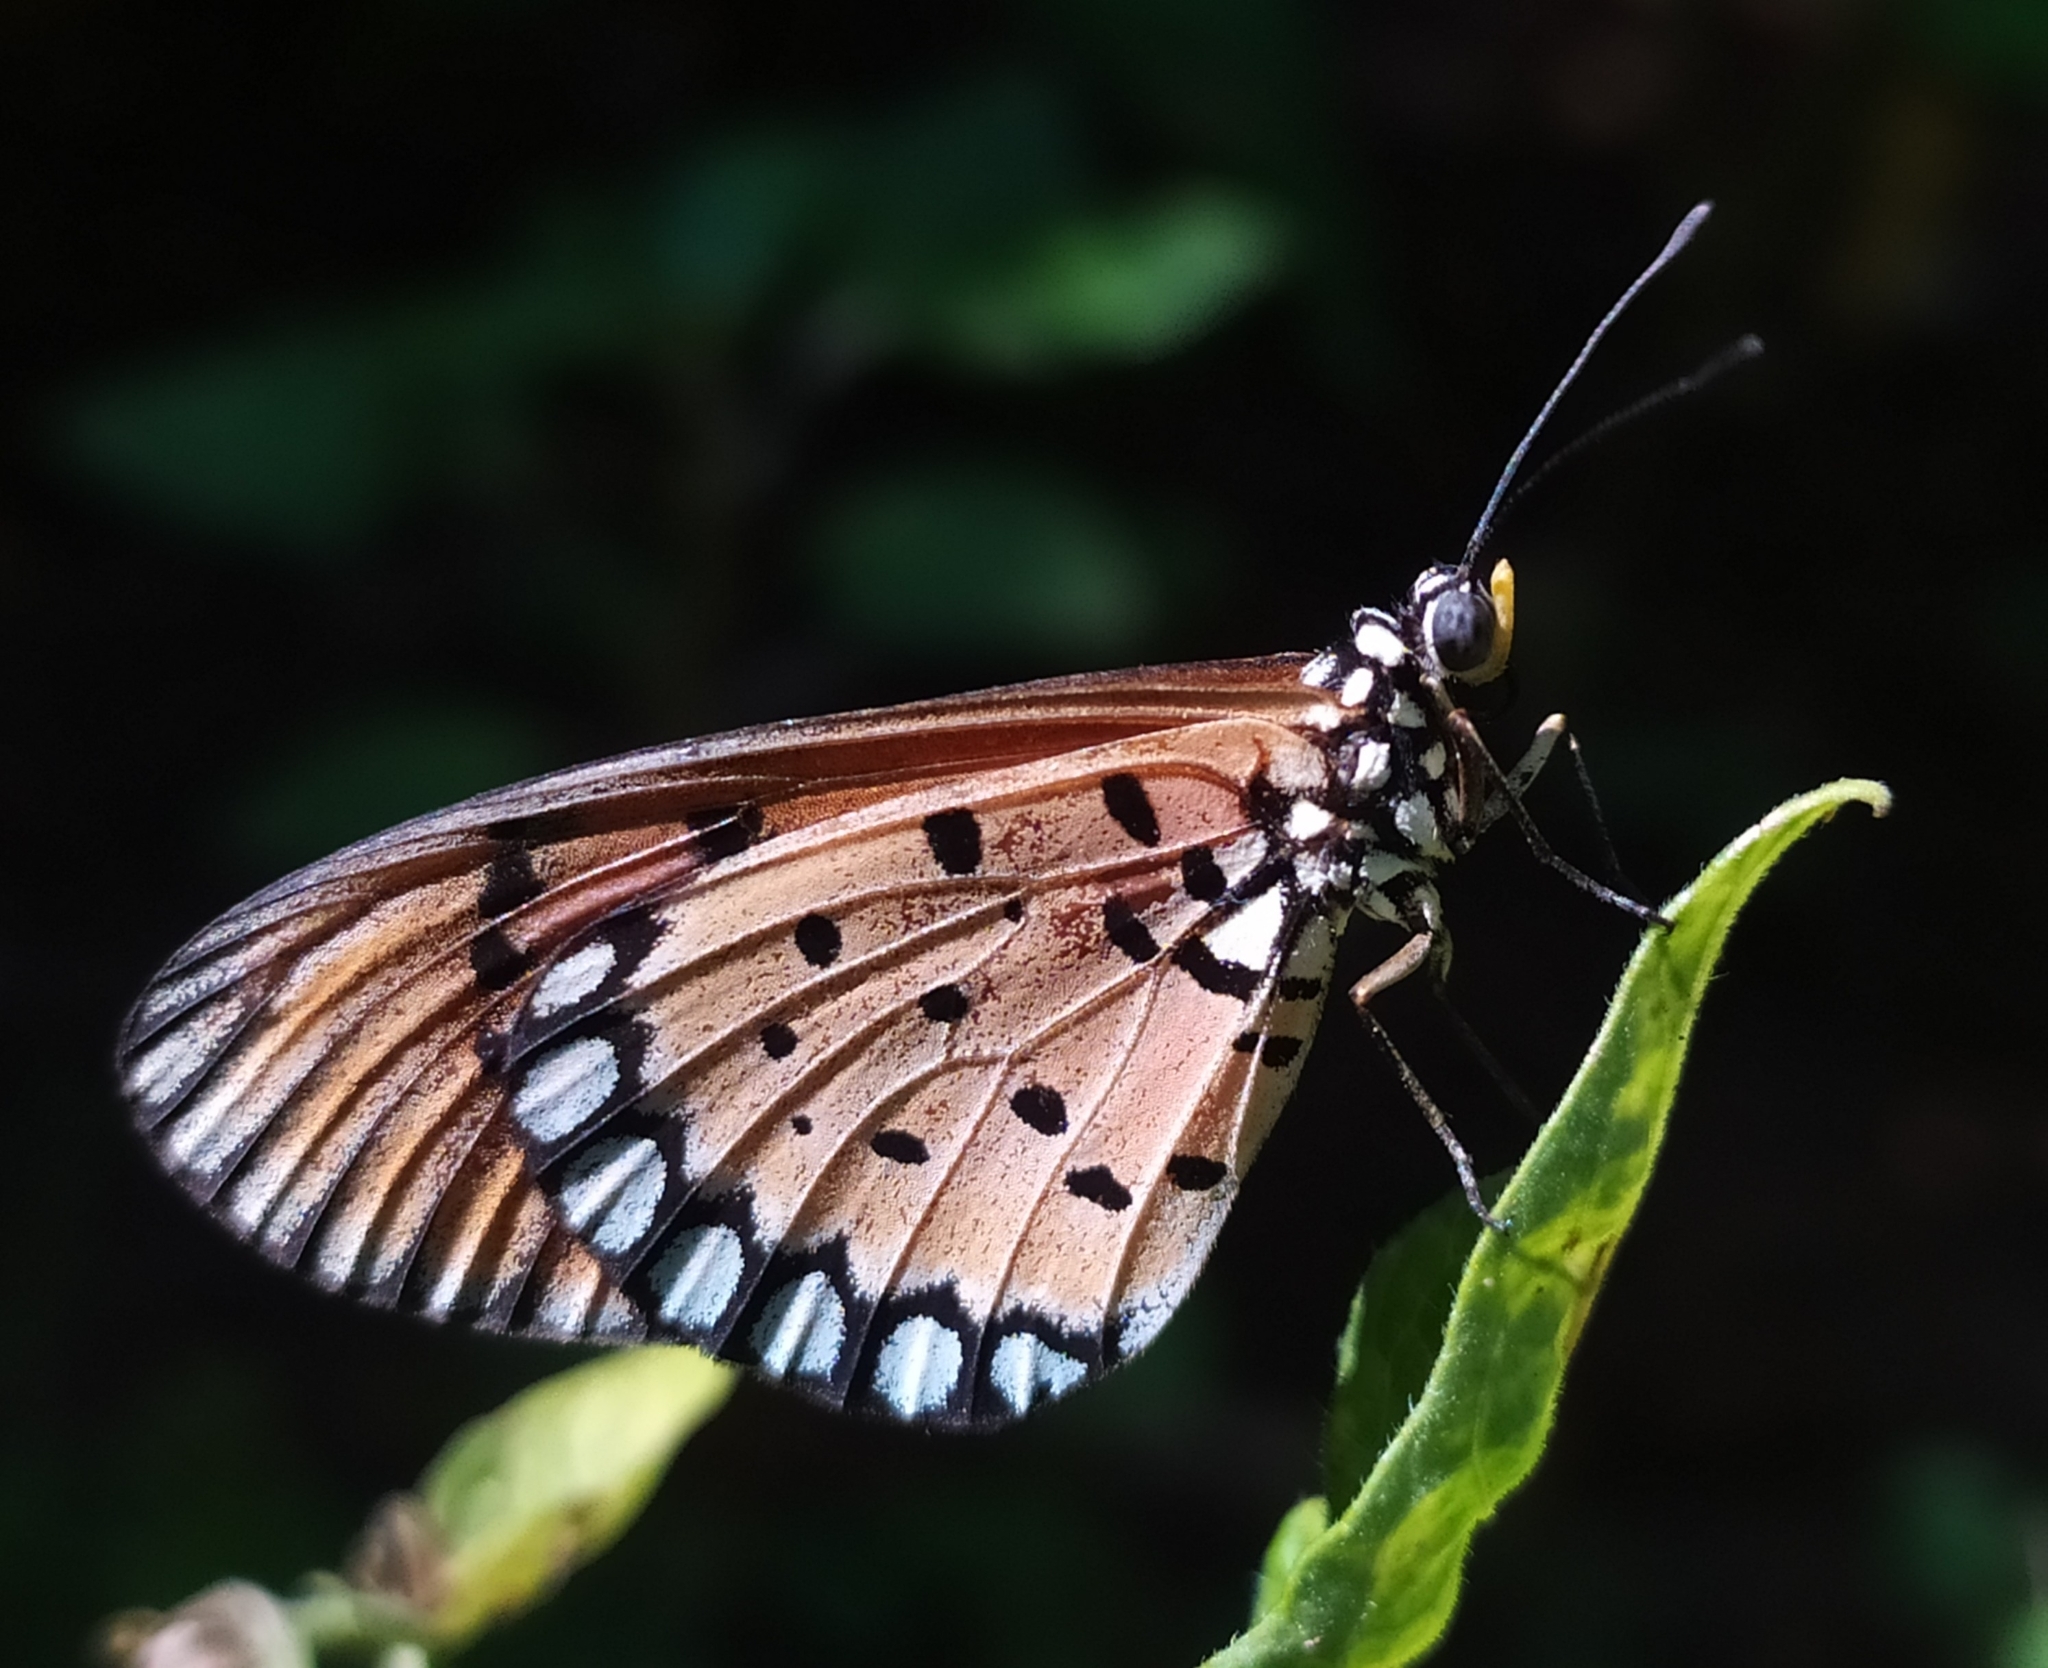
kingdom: Animalia
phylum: Arthropoda
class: Insecta
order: Lepidoptera
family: Nymphalidae
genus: Acraea
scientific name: Acraea terpsicore
